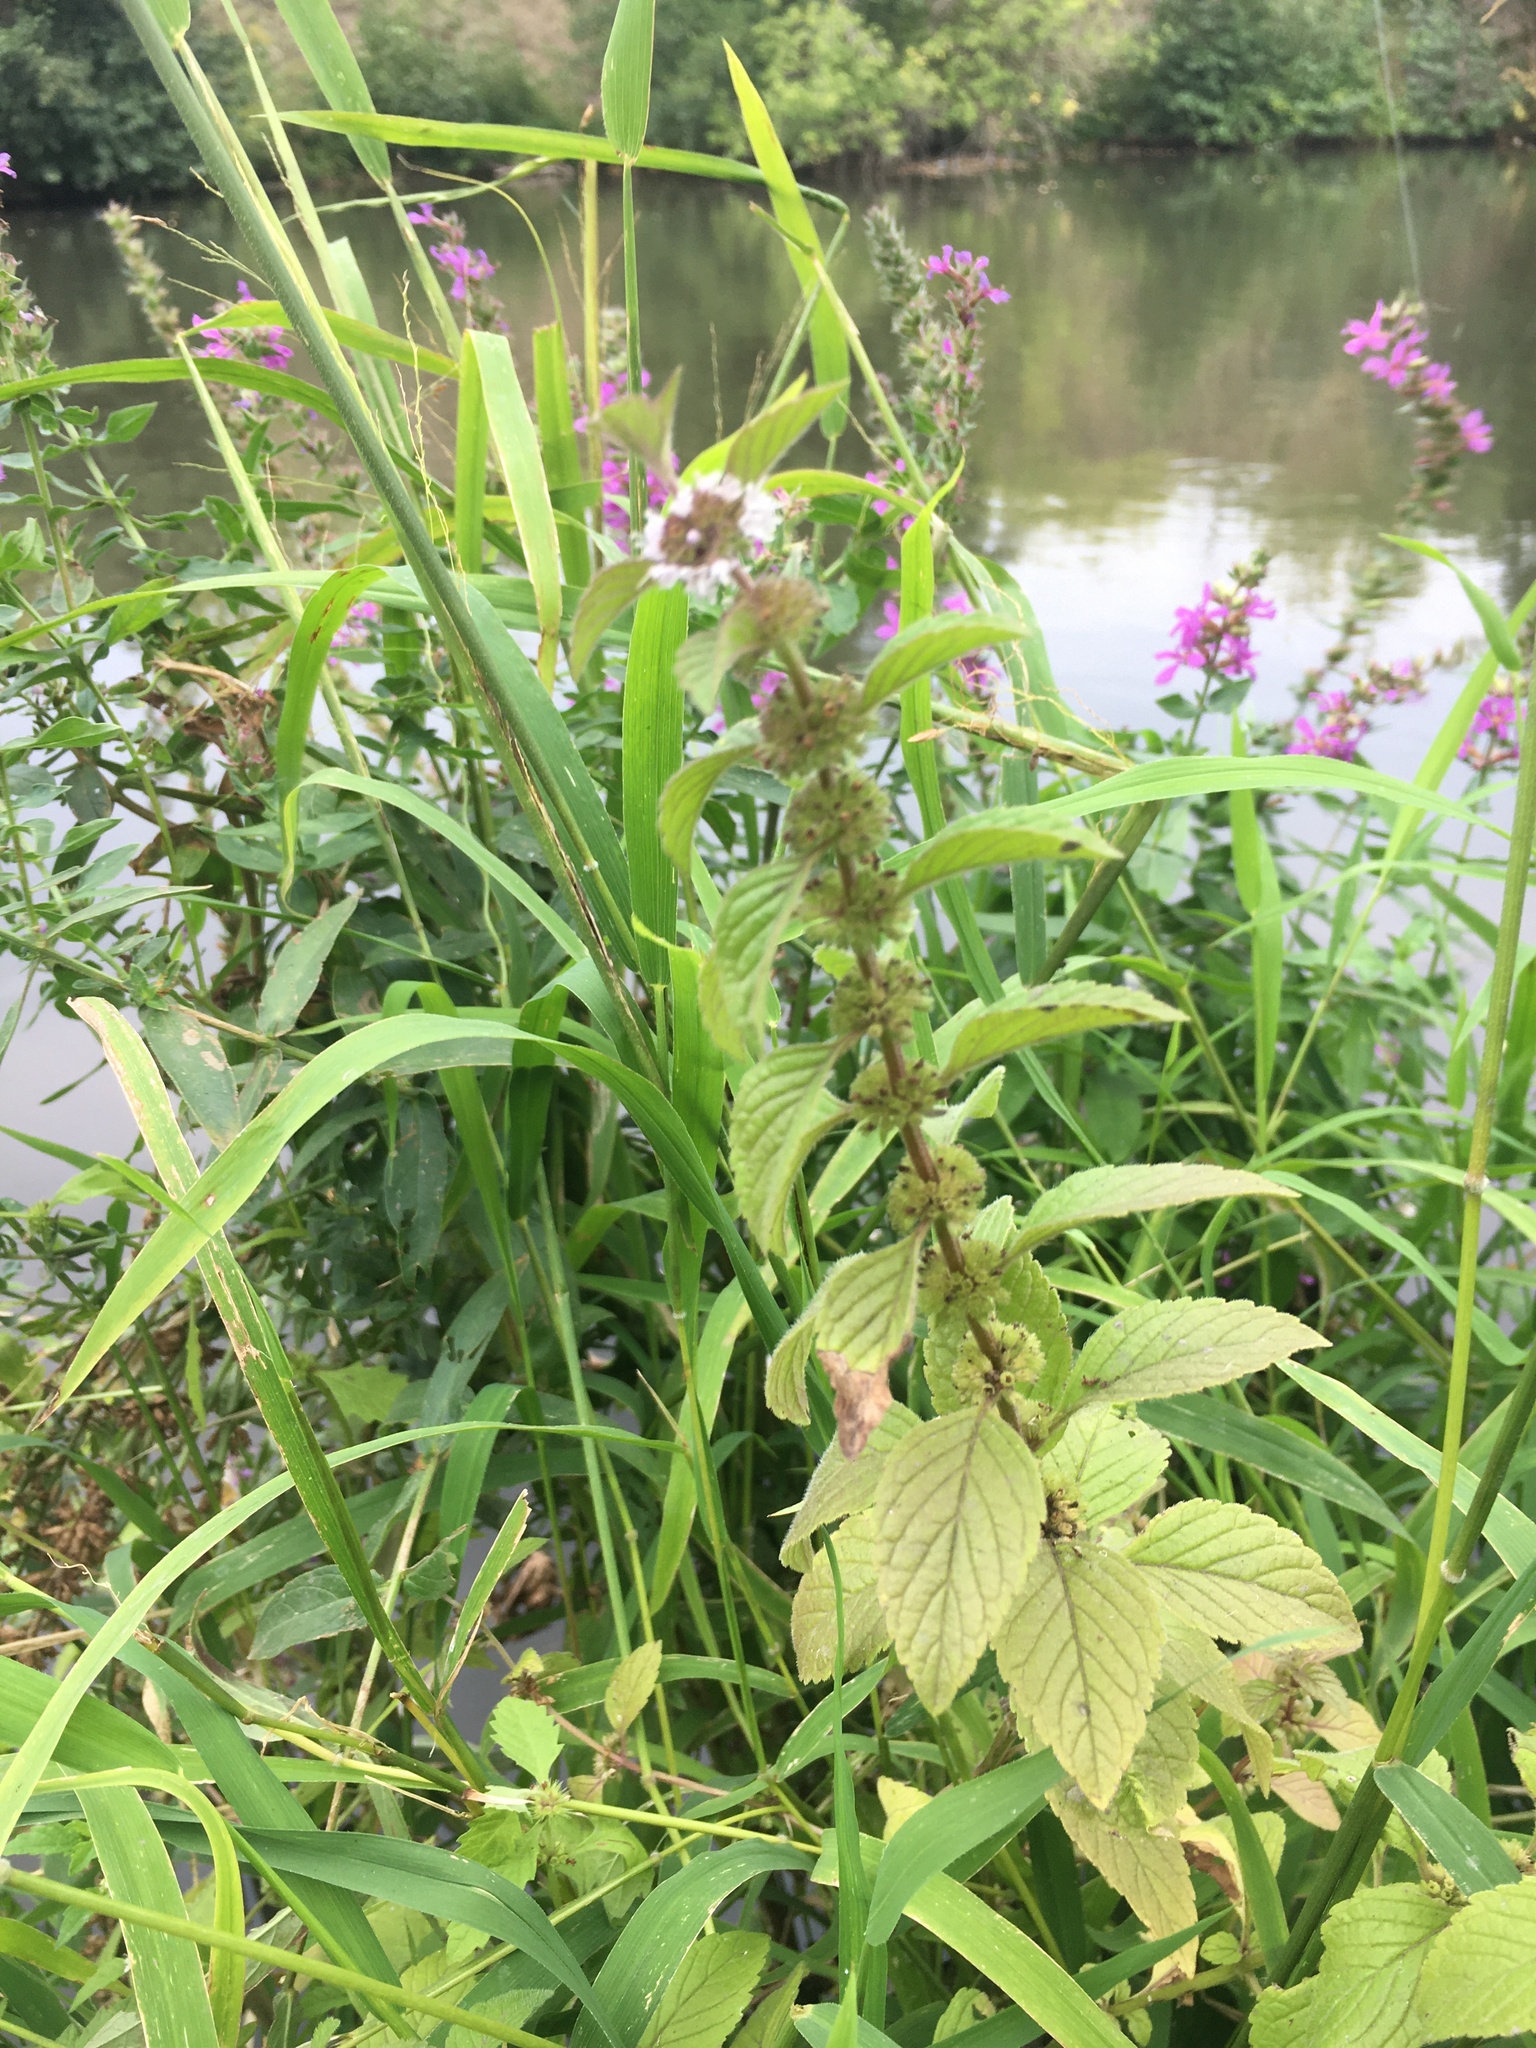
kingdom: Plantae
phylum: Tracheophyta
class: Magnoliopsida
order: Lamiales
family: Lamiaceae
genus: Mentha
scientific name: Mentha arvensis
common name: Corn mint
